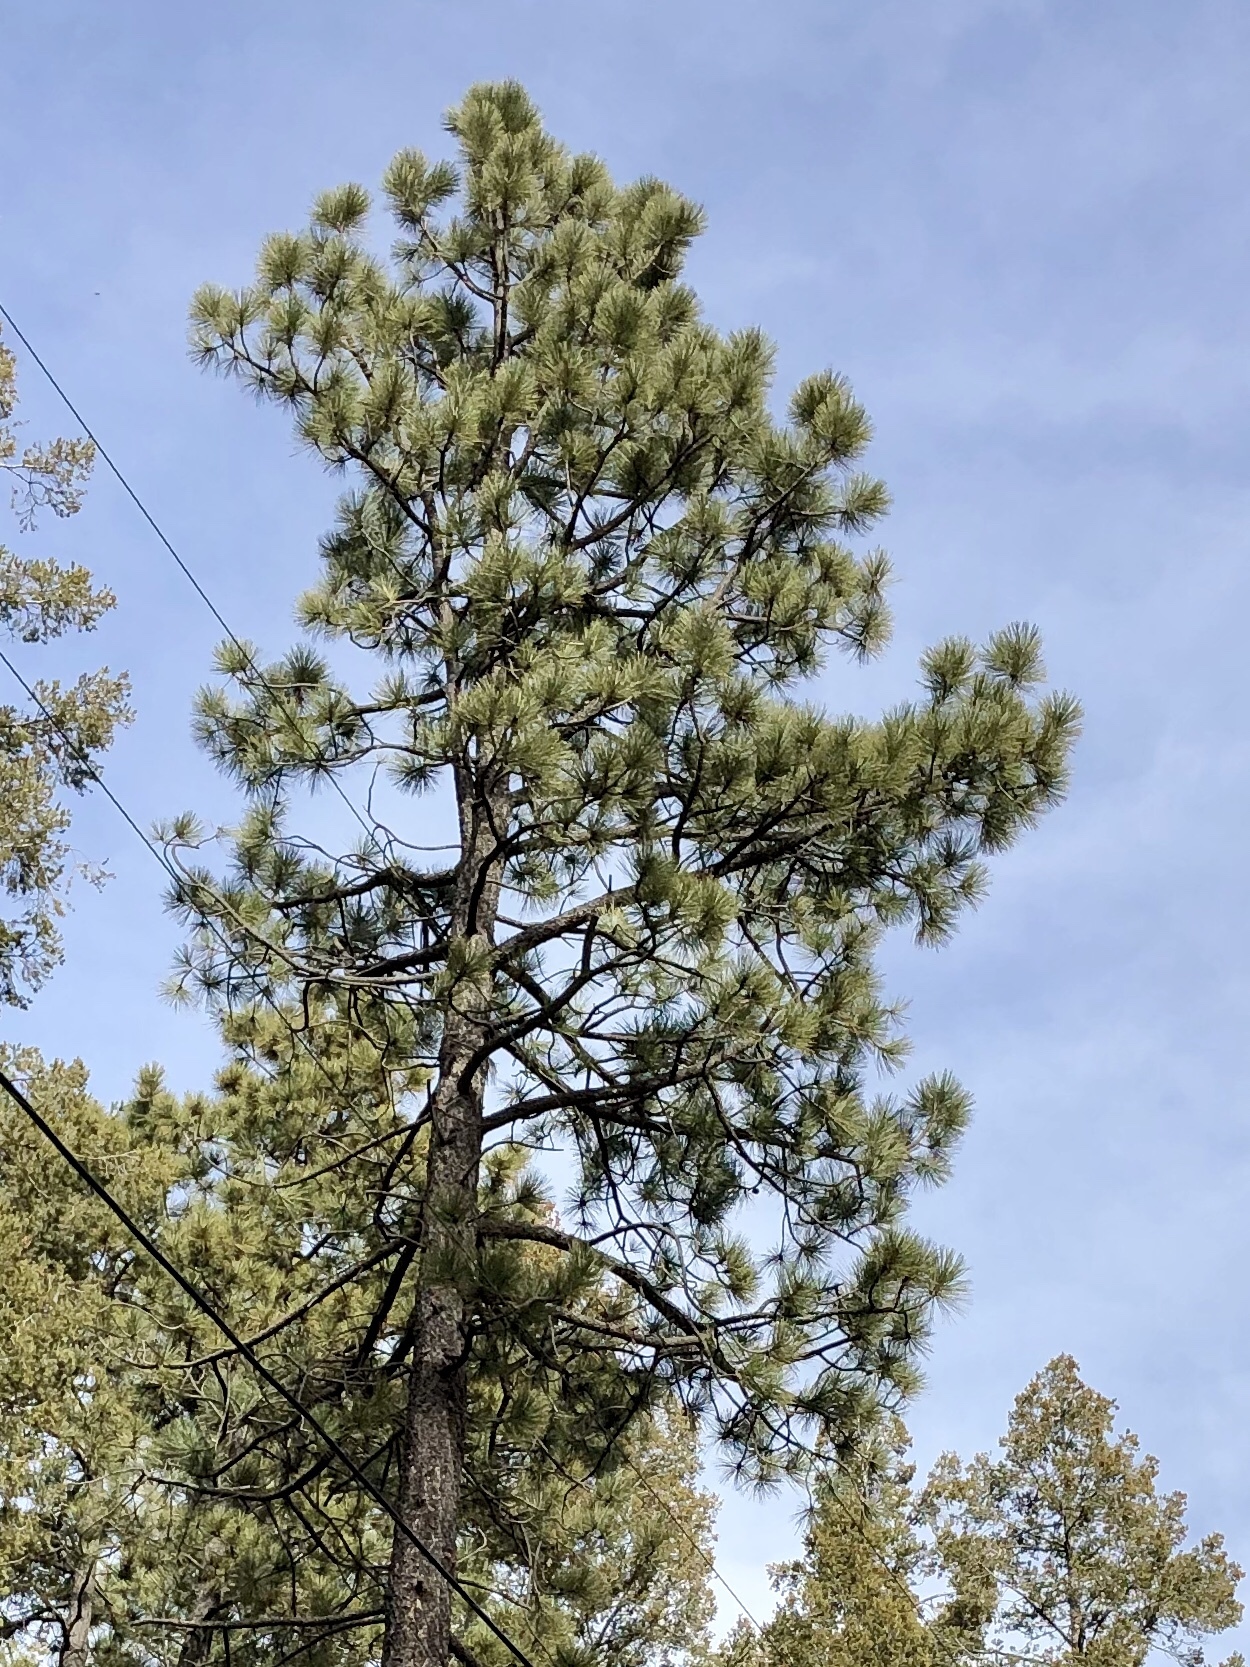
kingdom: Plantae
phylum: Tracheophyta
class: Pinopsida
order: Pinales
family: Pinaceae
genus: Pinus
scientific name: Pinus ponderosa
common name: Western yellow-pine
